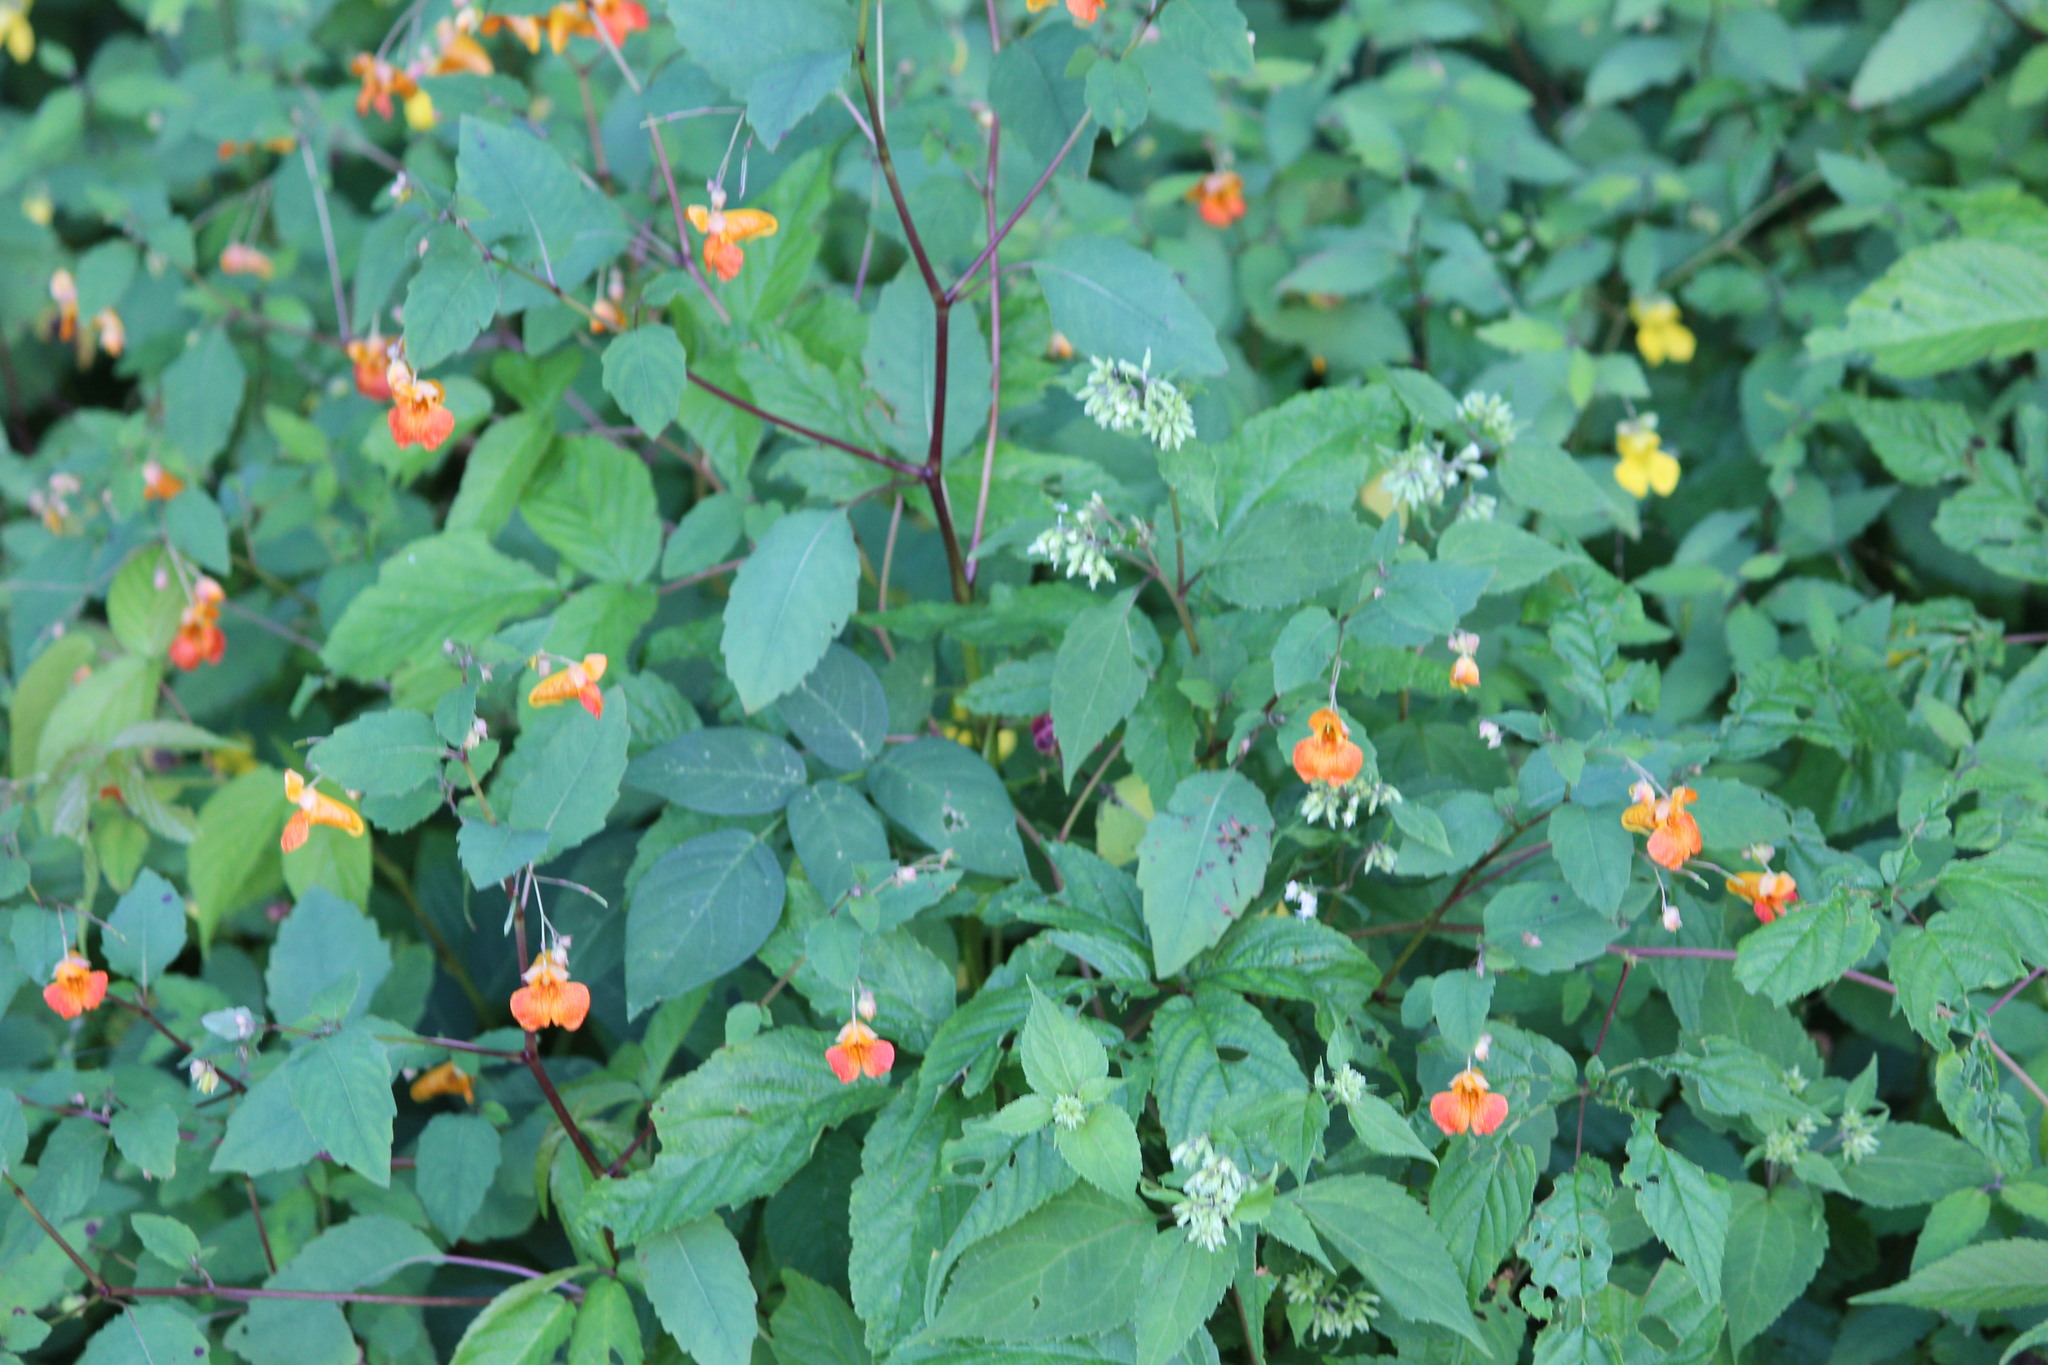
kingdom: Plantae
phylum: Tracheophyta
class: Magnoliopsida
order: Ericales
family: Balsaminaceae
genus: Impatiens
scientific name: Impatiens capensis
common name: Orange balsam
